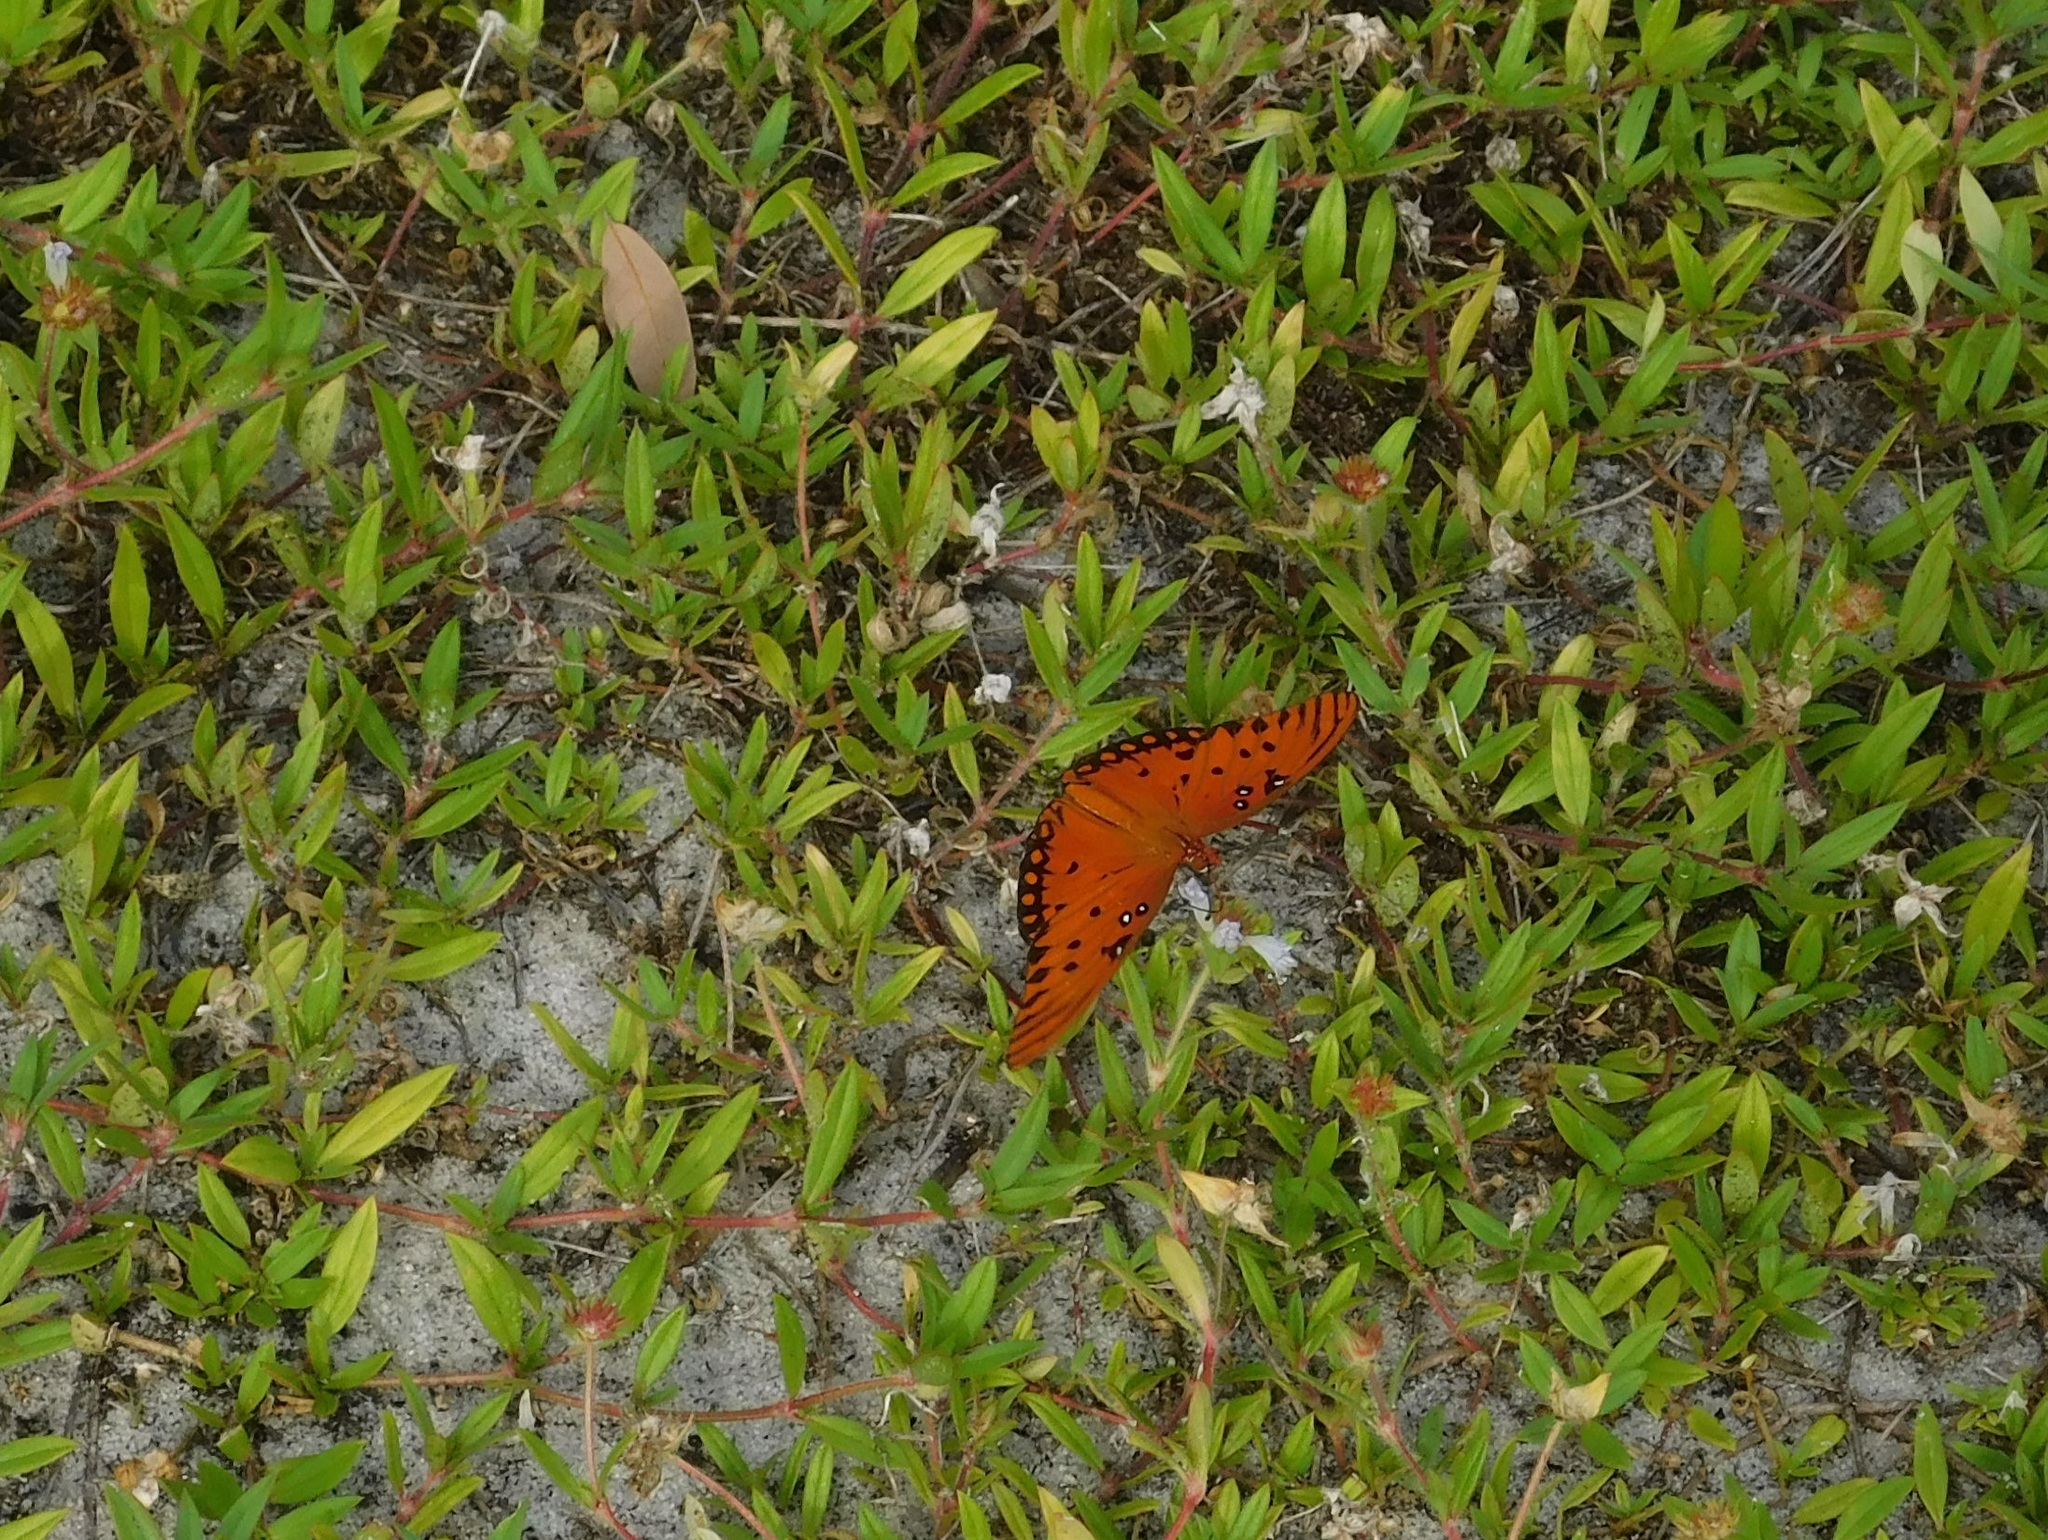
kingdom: Animalia
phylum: Arthropoda
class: Insecta
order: Lepidoptera
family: Nymphalidae
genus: Dione
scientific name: Dione vanillae
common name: Gulf fritillary
